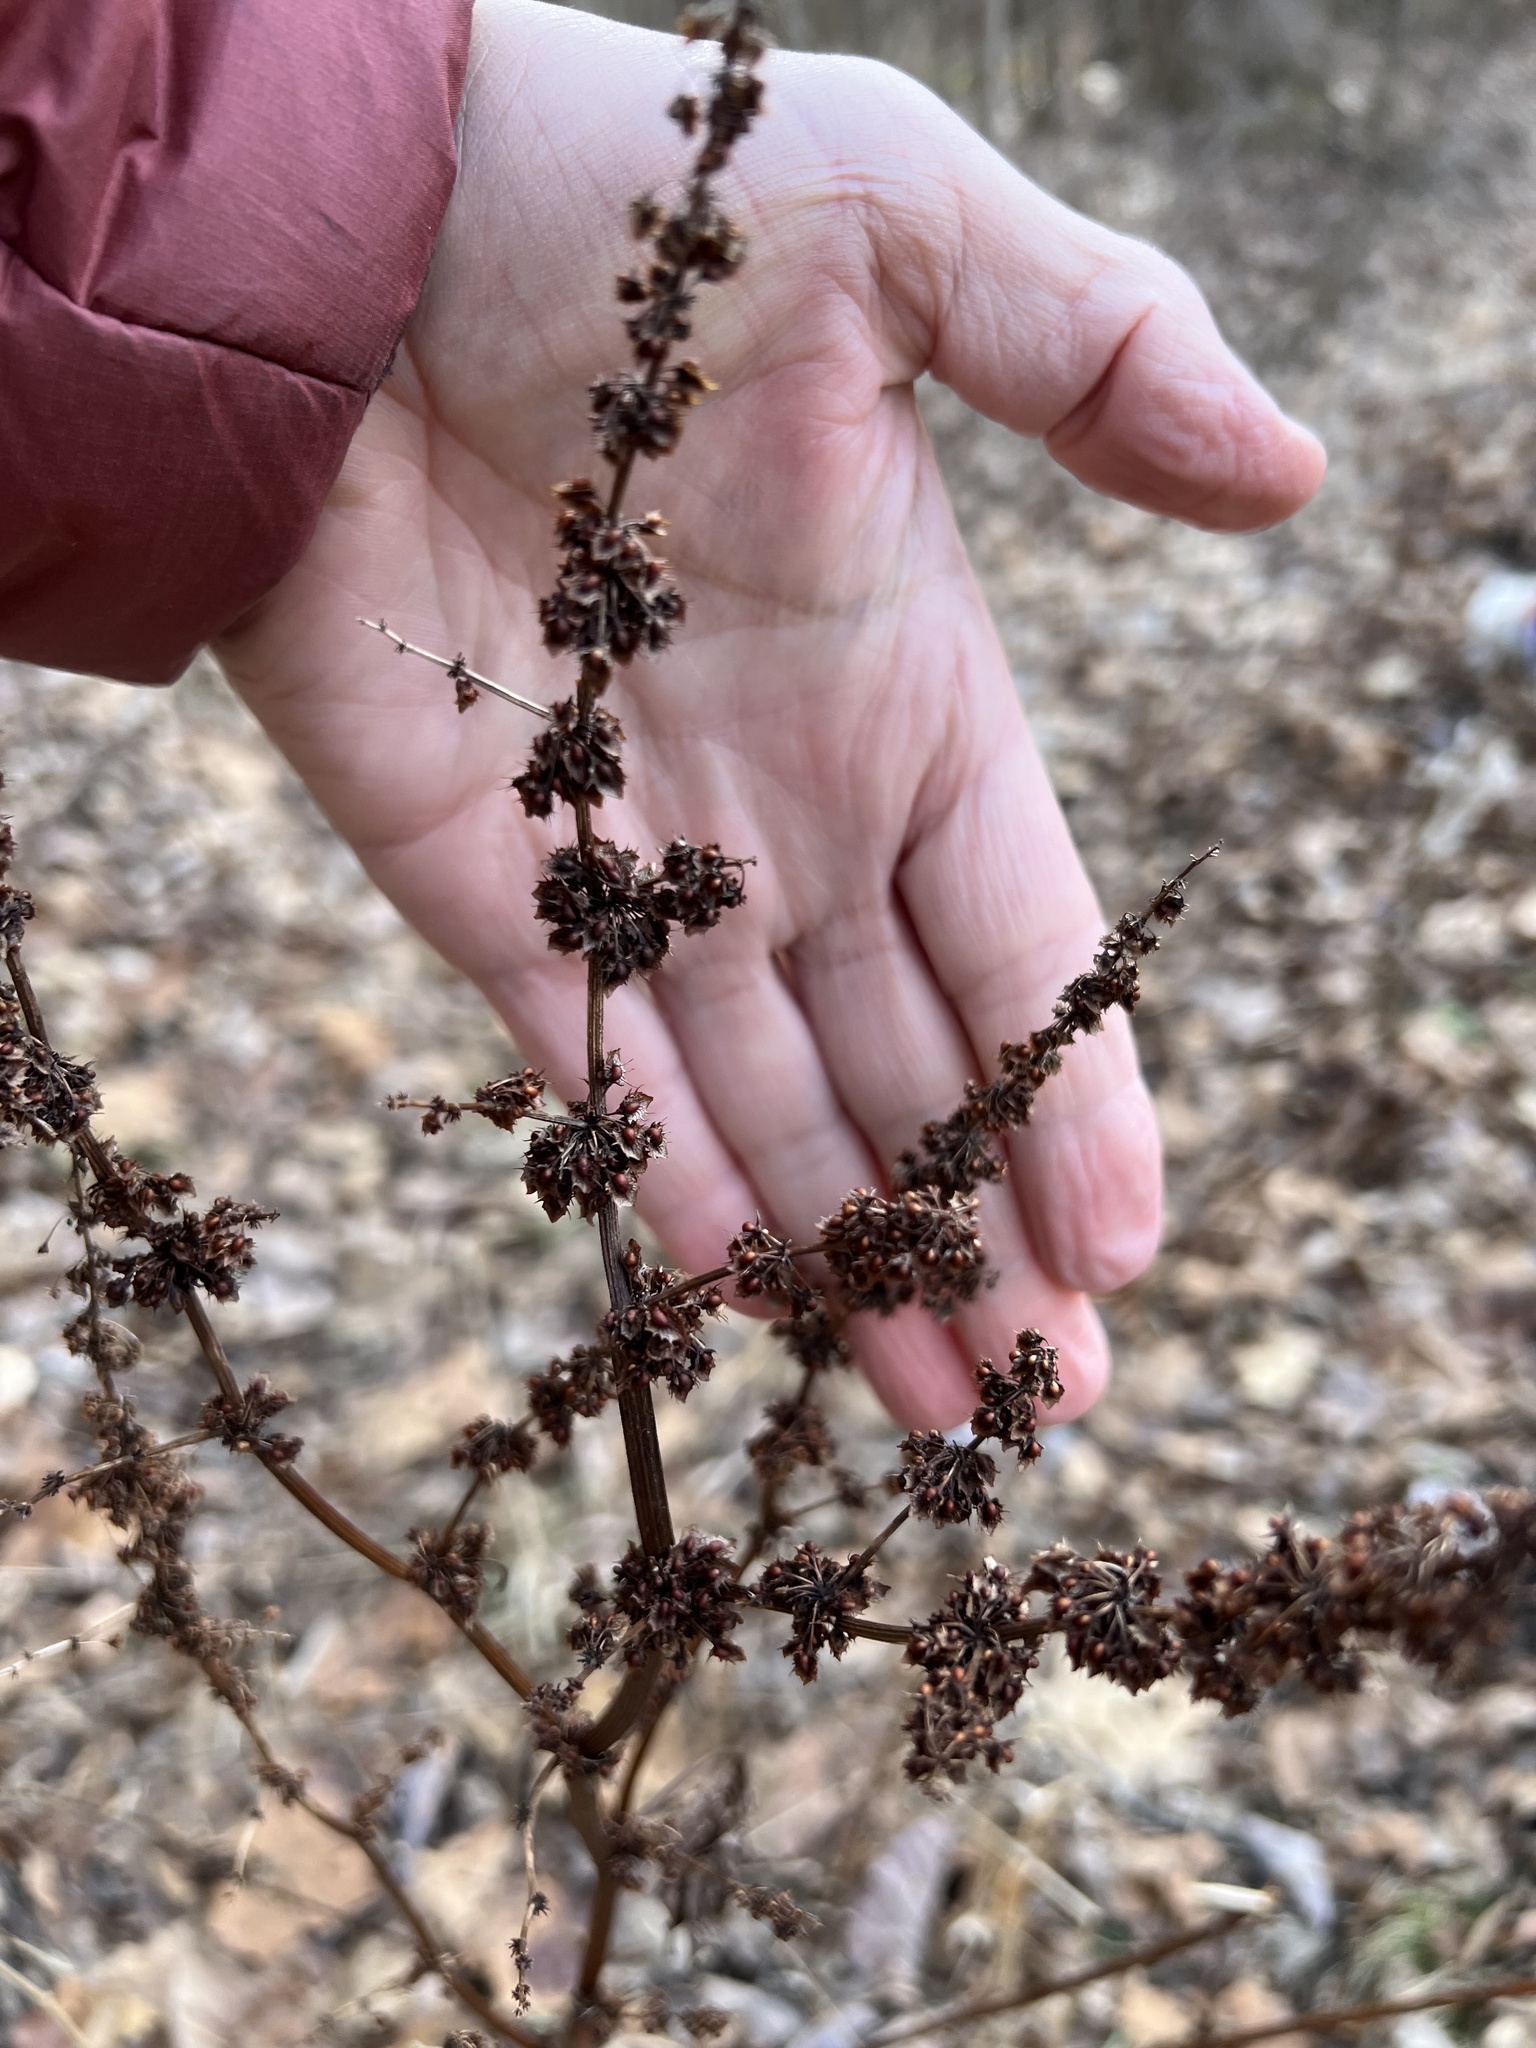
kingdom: Plantae
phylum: Tracheophyta
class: Magnoliopsida
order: Caryophyllales
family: Polygonaceae
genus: Rumex
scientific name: Rumex obtusifolius
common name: Bitter dock
